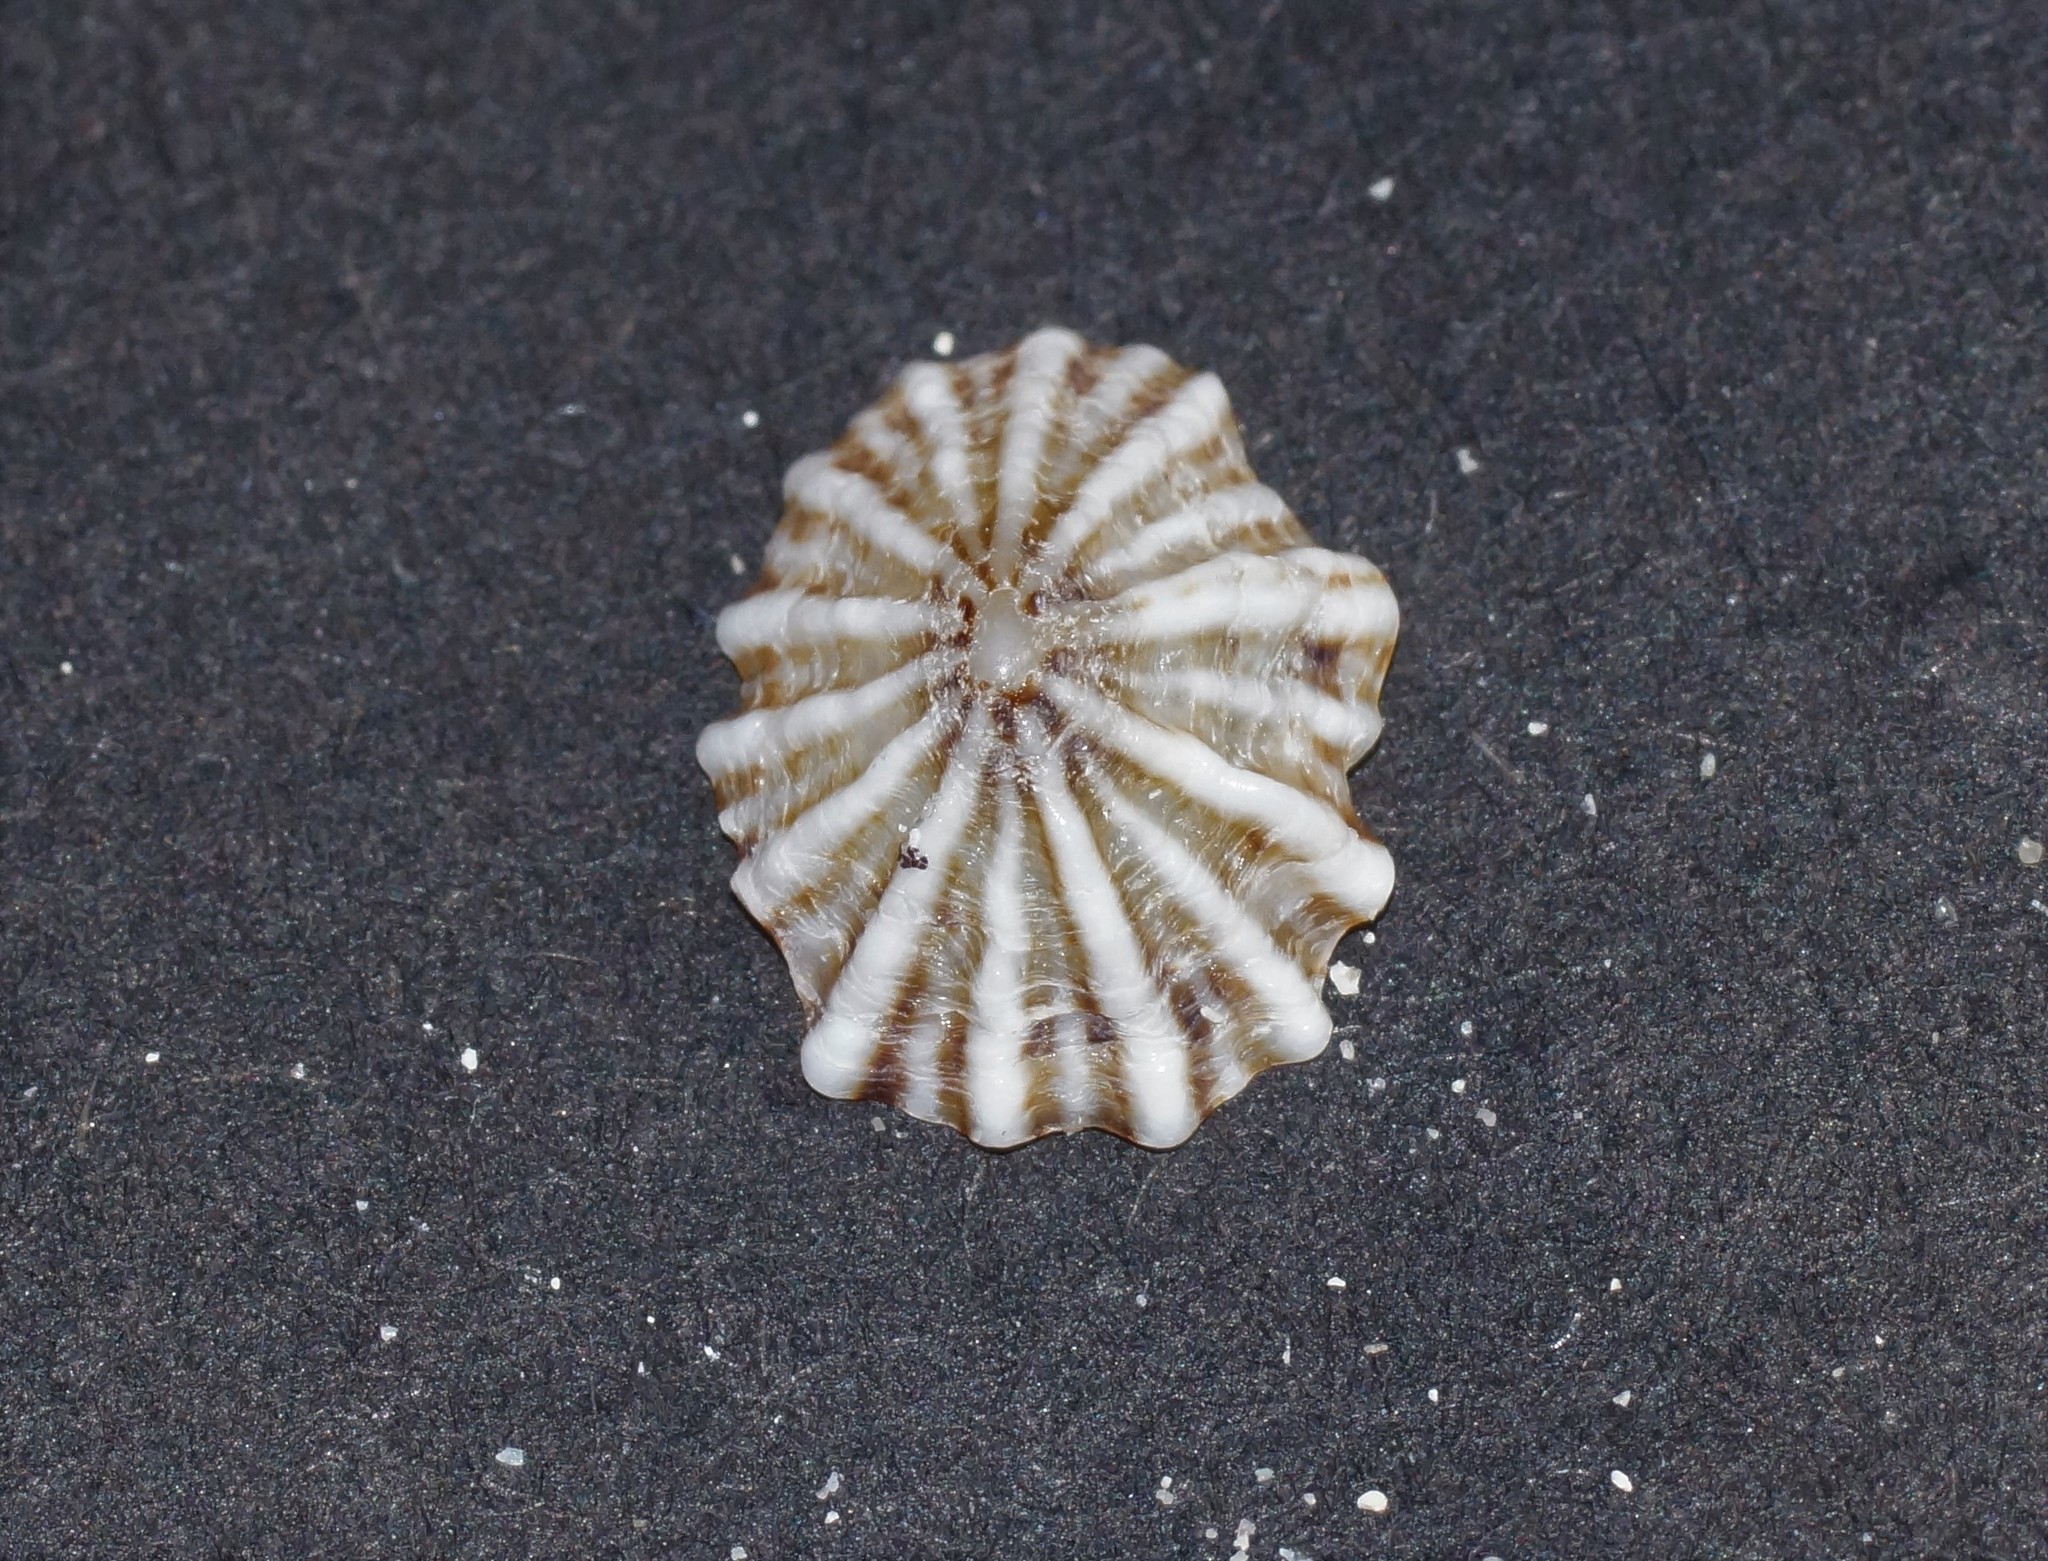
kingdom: Animalia
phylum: Mollusca
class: Gastropoda
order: Siphonariida
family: Siphonariidae
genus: Siphonaria
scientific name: Siphonaria diemenensis
